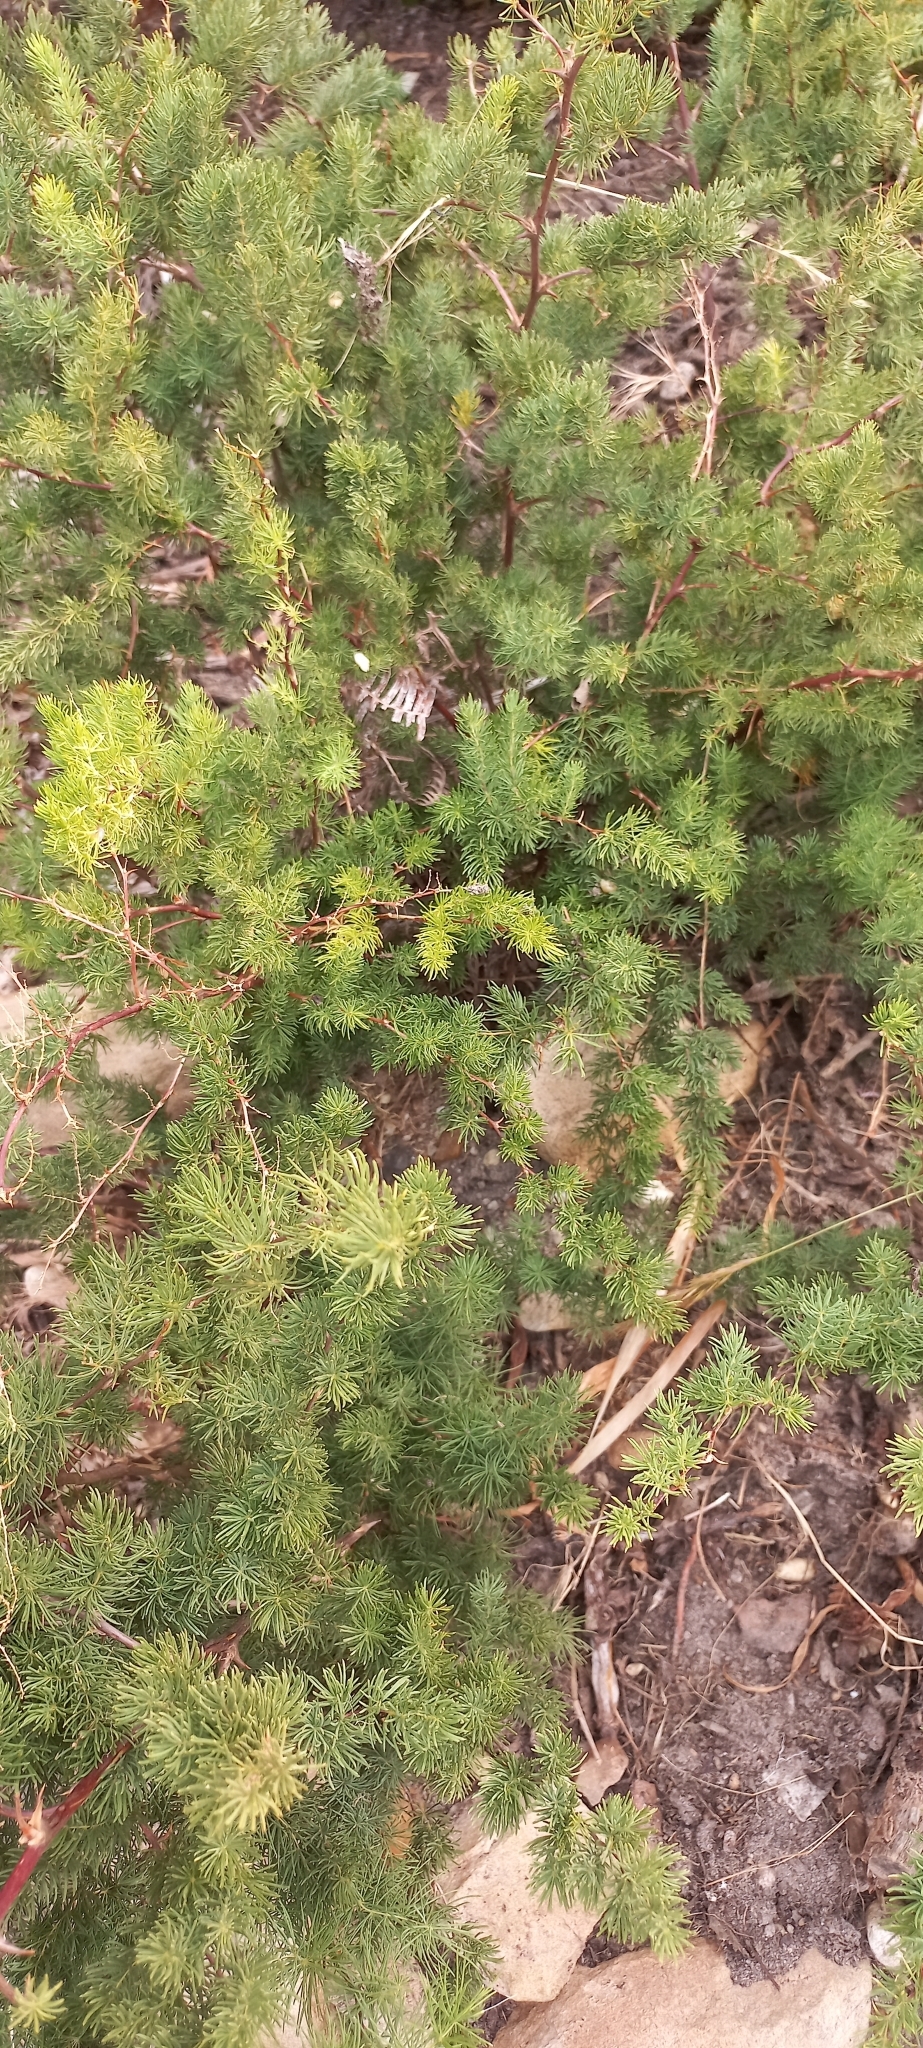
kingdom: Plantae
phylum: Tracheophyta
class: Liliopsida
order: Asparagales
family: Asparagaceae
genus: Asparagus
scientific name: Asparagus rubicundus
